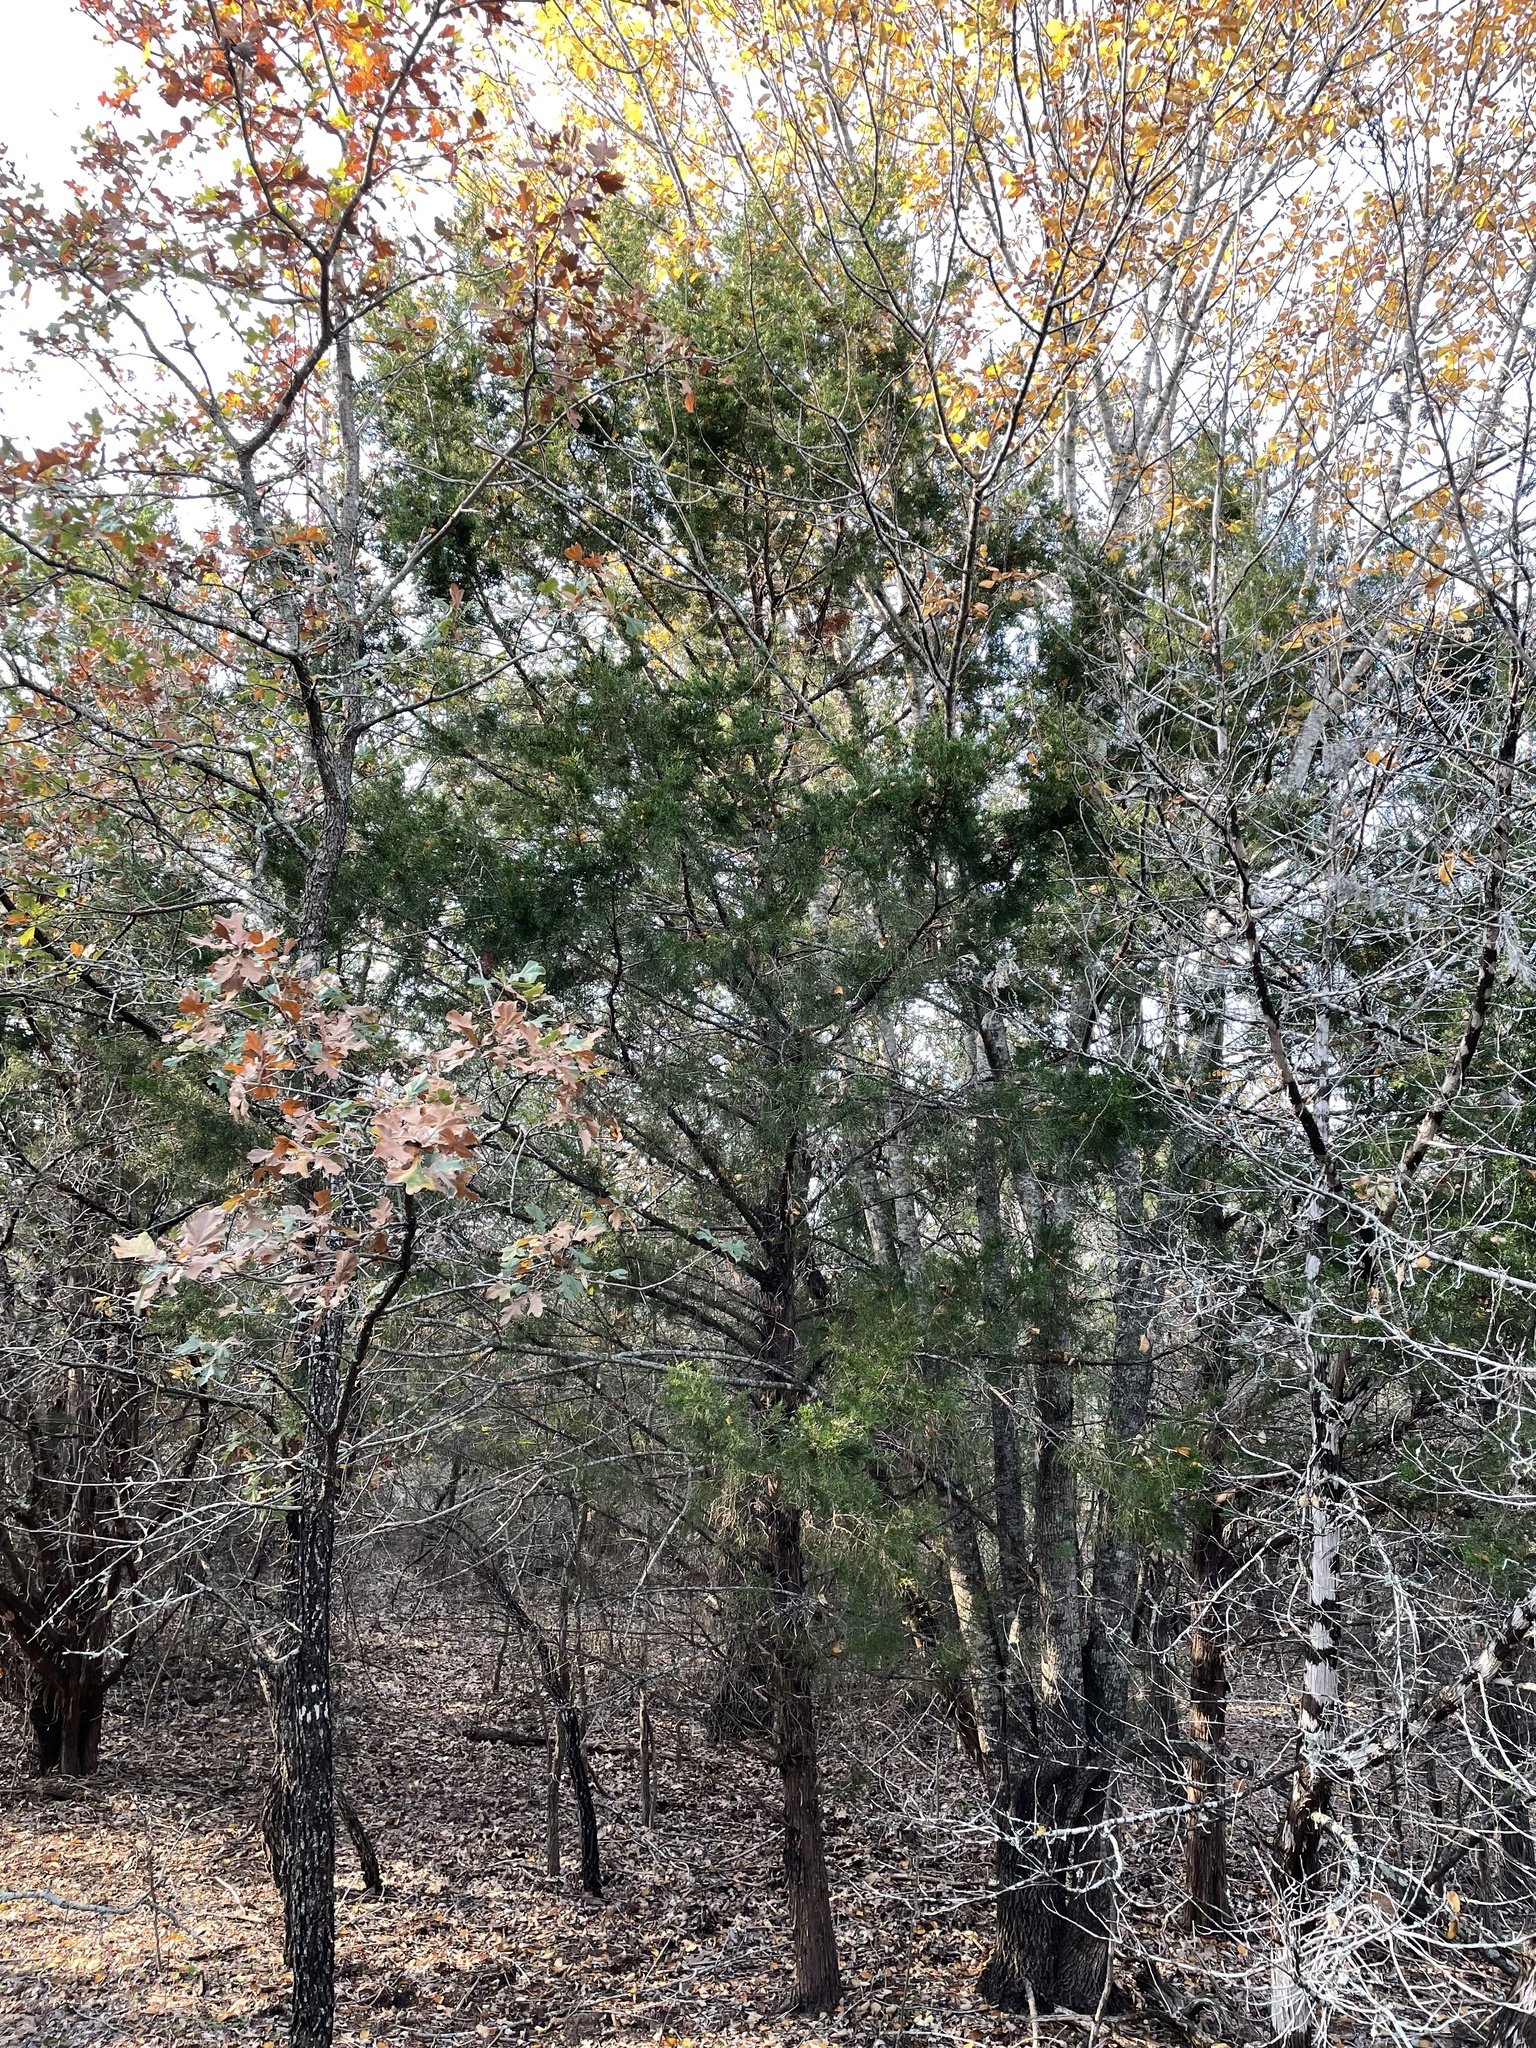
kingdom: Plantae
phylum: Tracheophyta
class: Pinopsida
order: Pinales
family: Cupressaceae
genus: Juniperus
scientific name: Juniperus virginiana
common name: Red juniper
